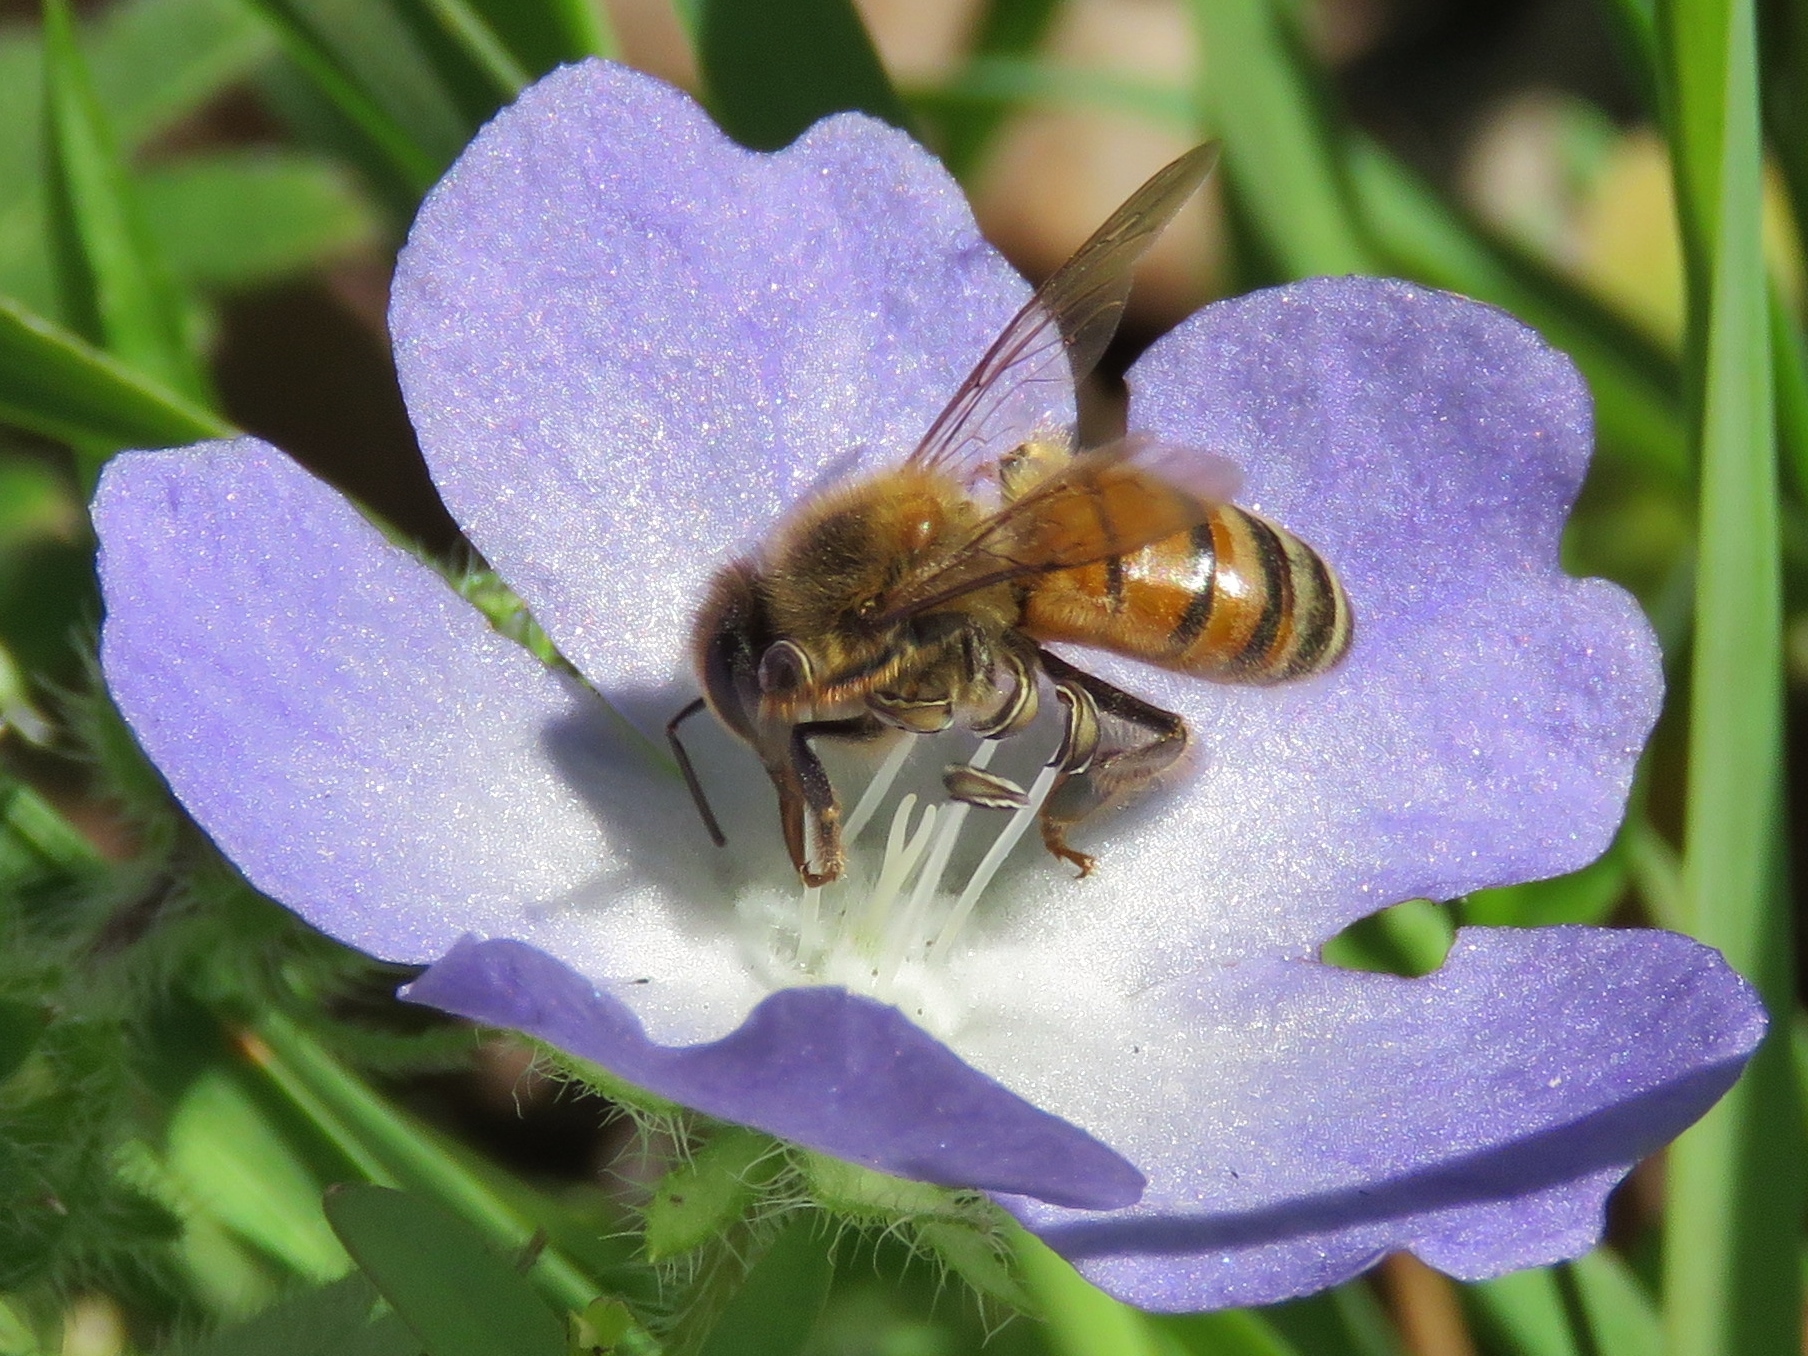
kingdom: Animalia
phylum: Arthropoda
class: Insecta
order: Hymenoptera
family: Apidae
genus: Apis
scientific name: Apis mellifera
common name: Honey bee
